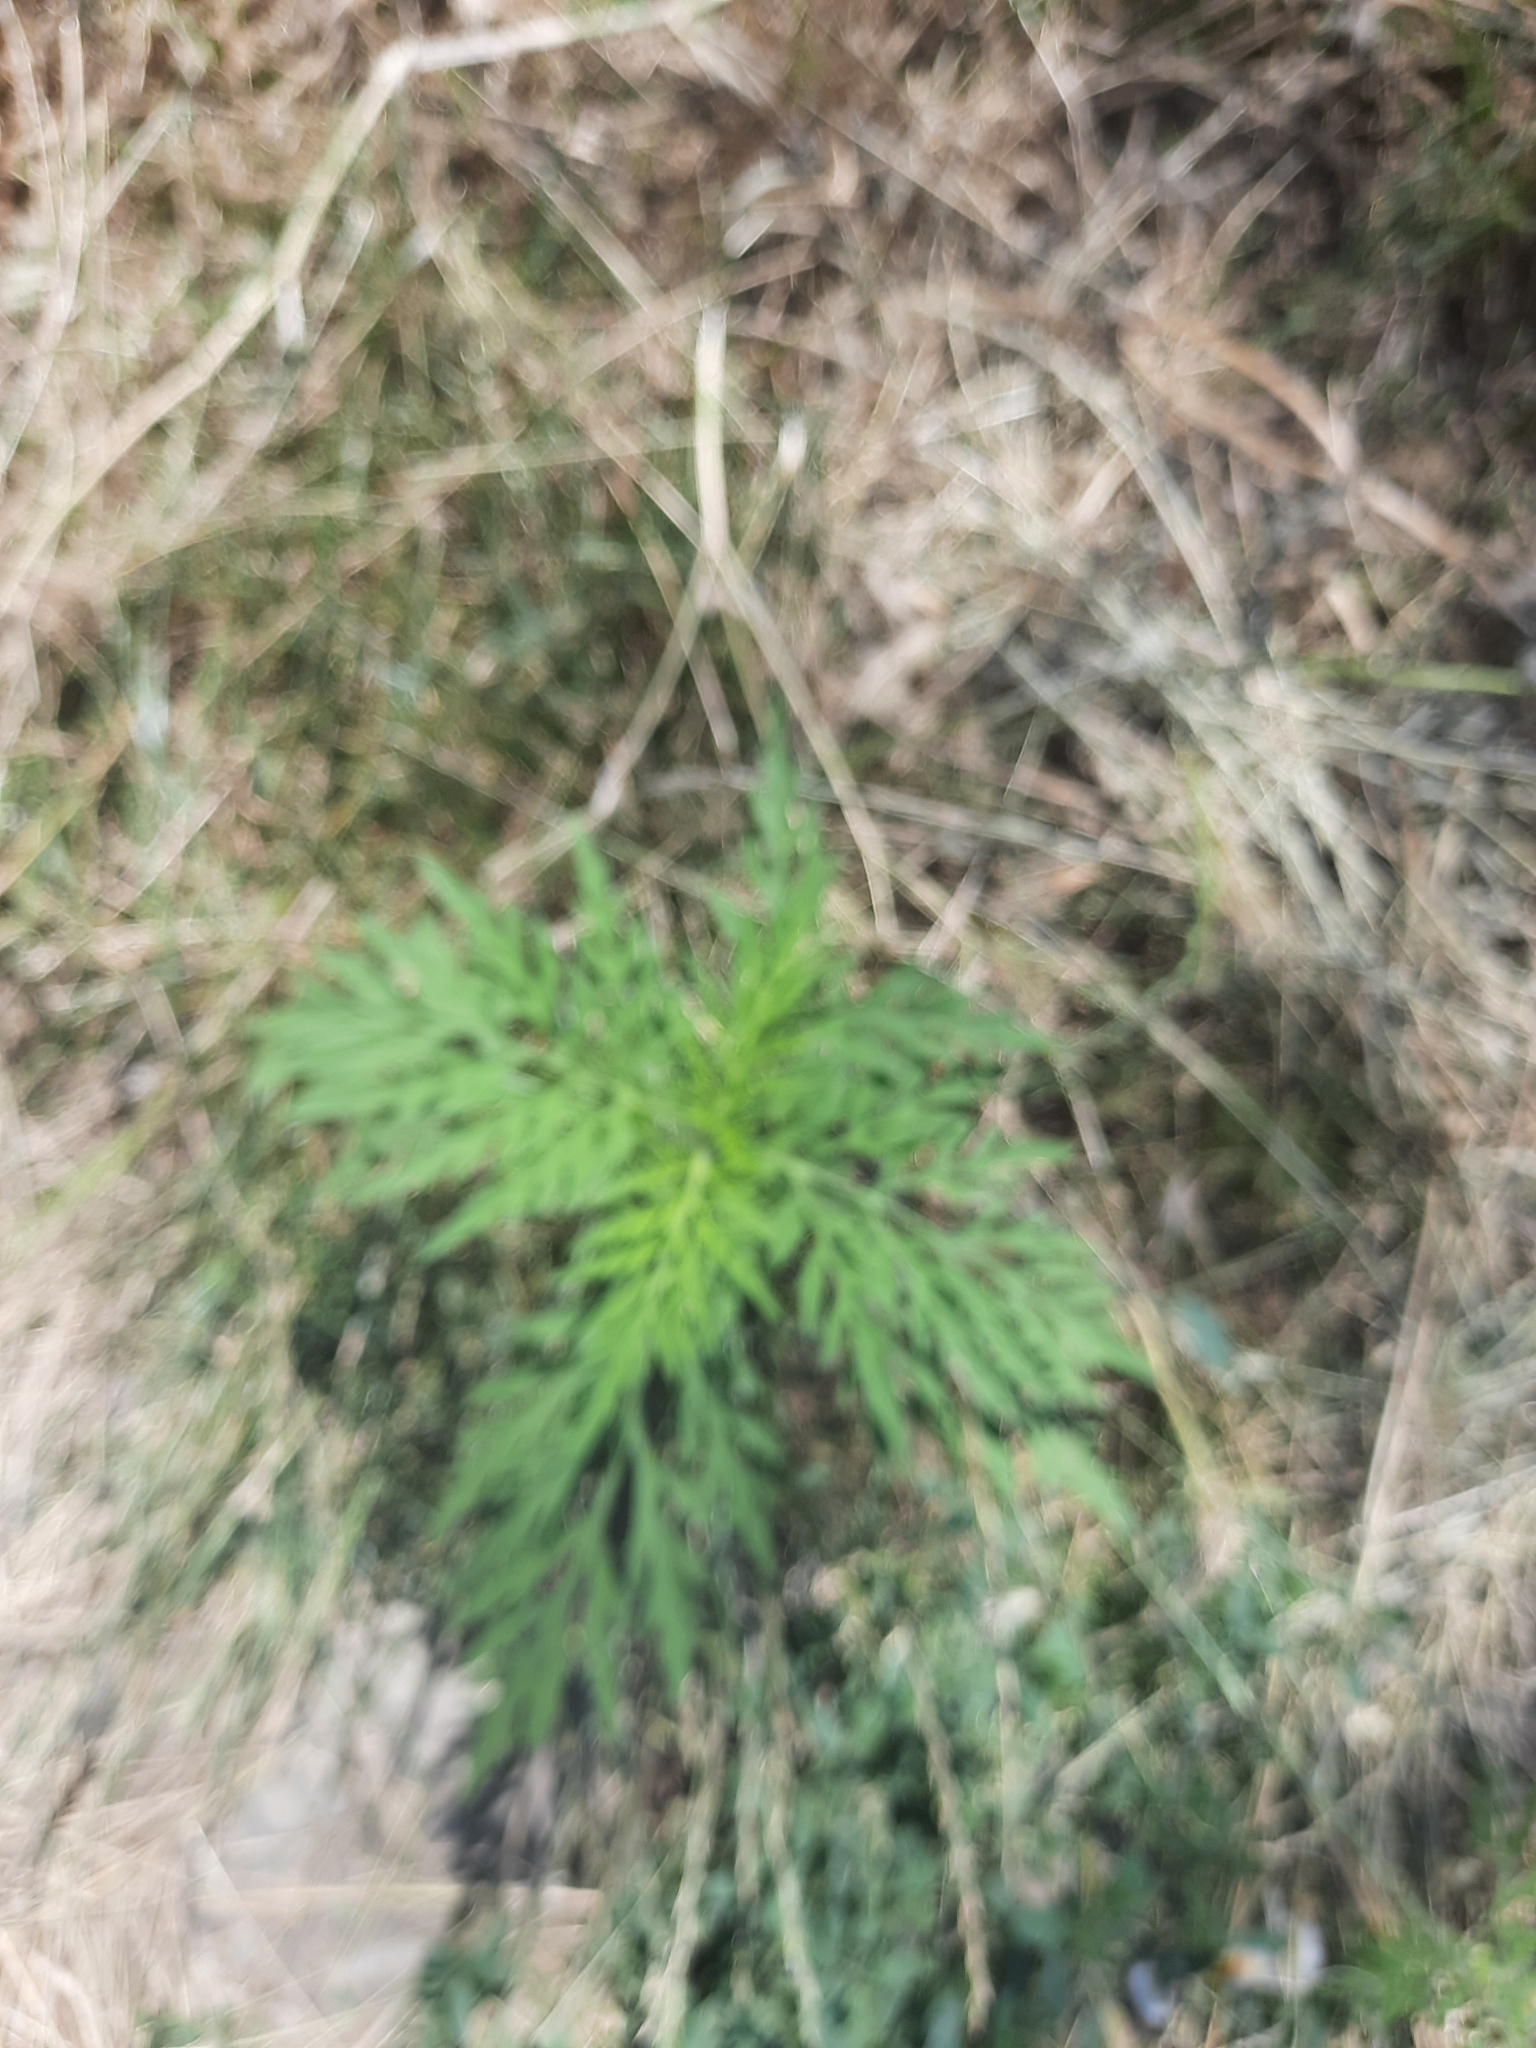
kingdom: Plantae
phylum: Tracheophyta
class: Magnoliopsida
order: Asterales
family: Asteraceae
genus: Ambrosia
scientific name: Ambrosia artemisiifolia
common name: Annual ragweed
